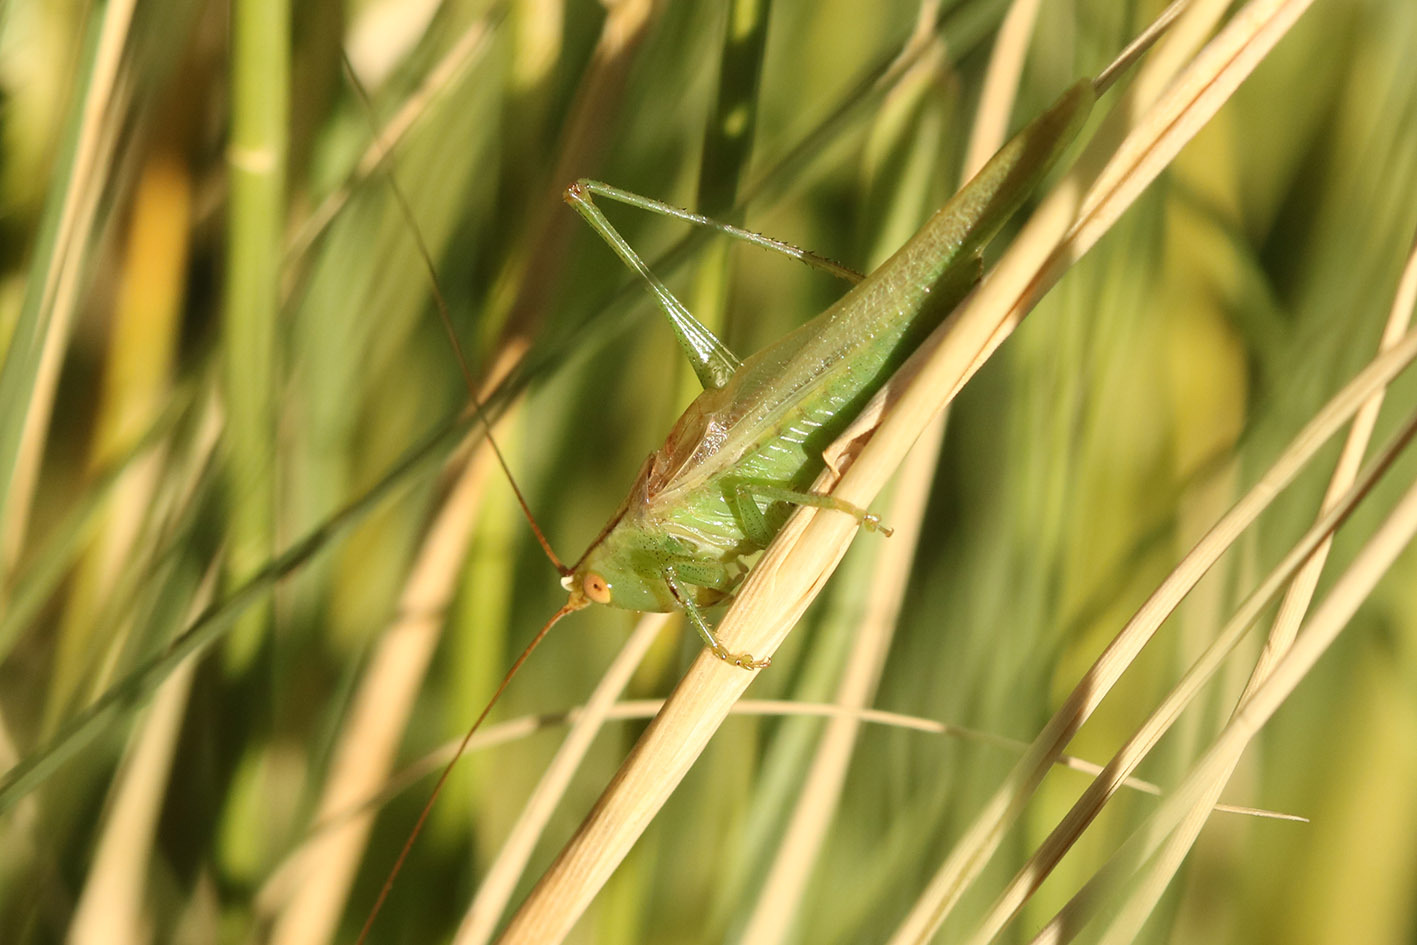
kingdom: Animalia
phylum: Arthropoda
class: Insecta
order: Orthoptera
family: Tettigoniidae
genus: Conocephalus
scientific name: Conocephalus longipes
